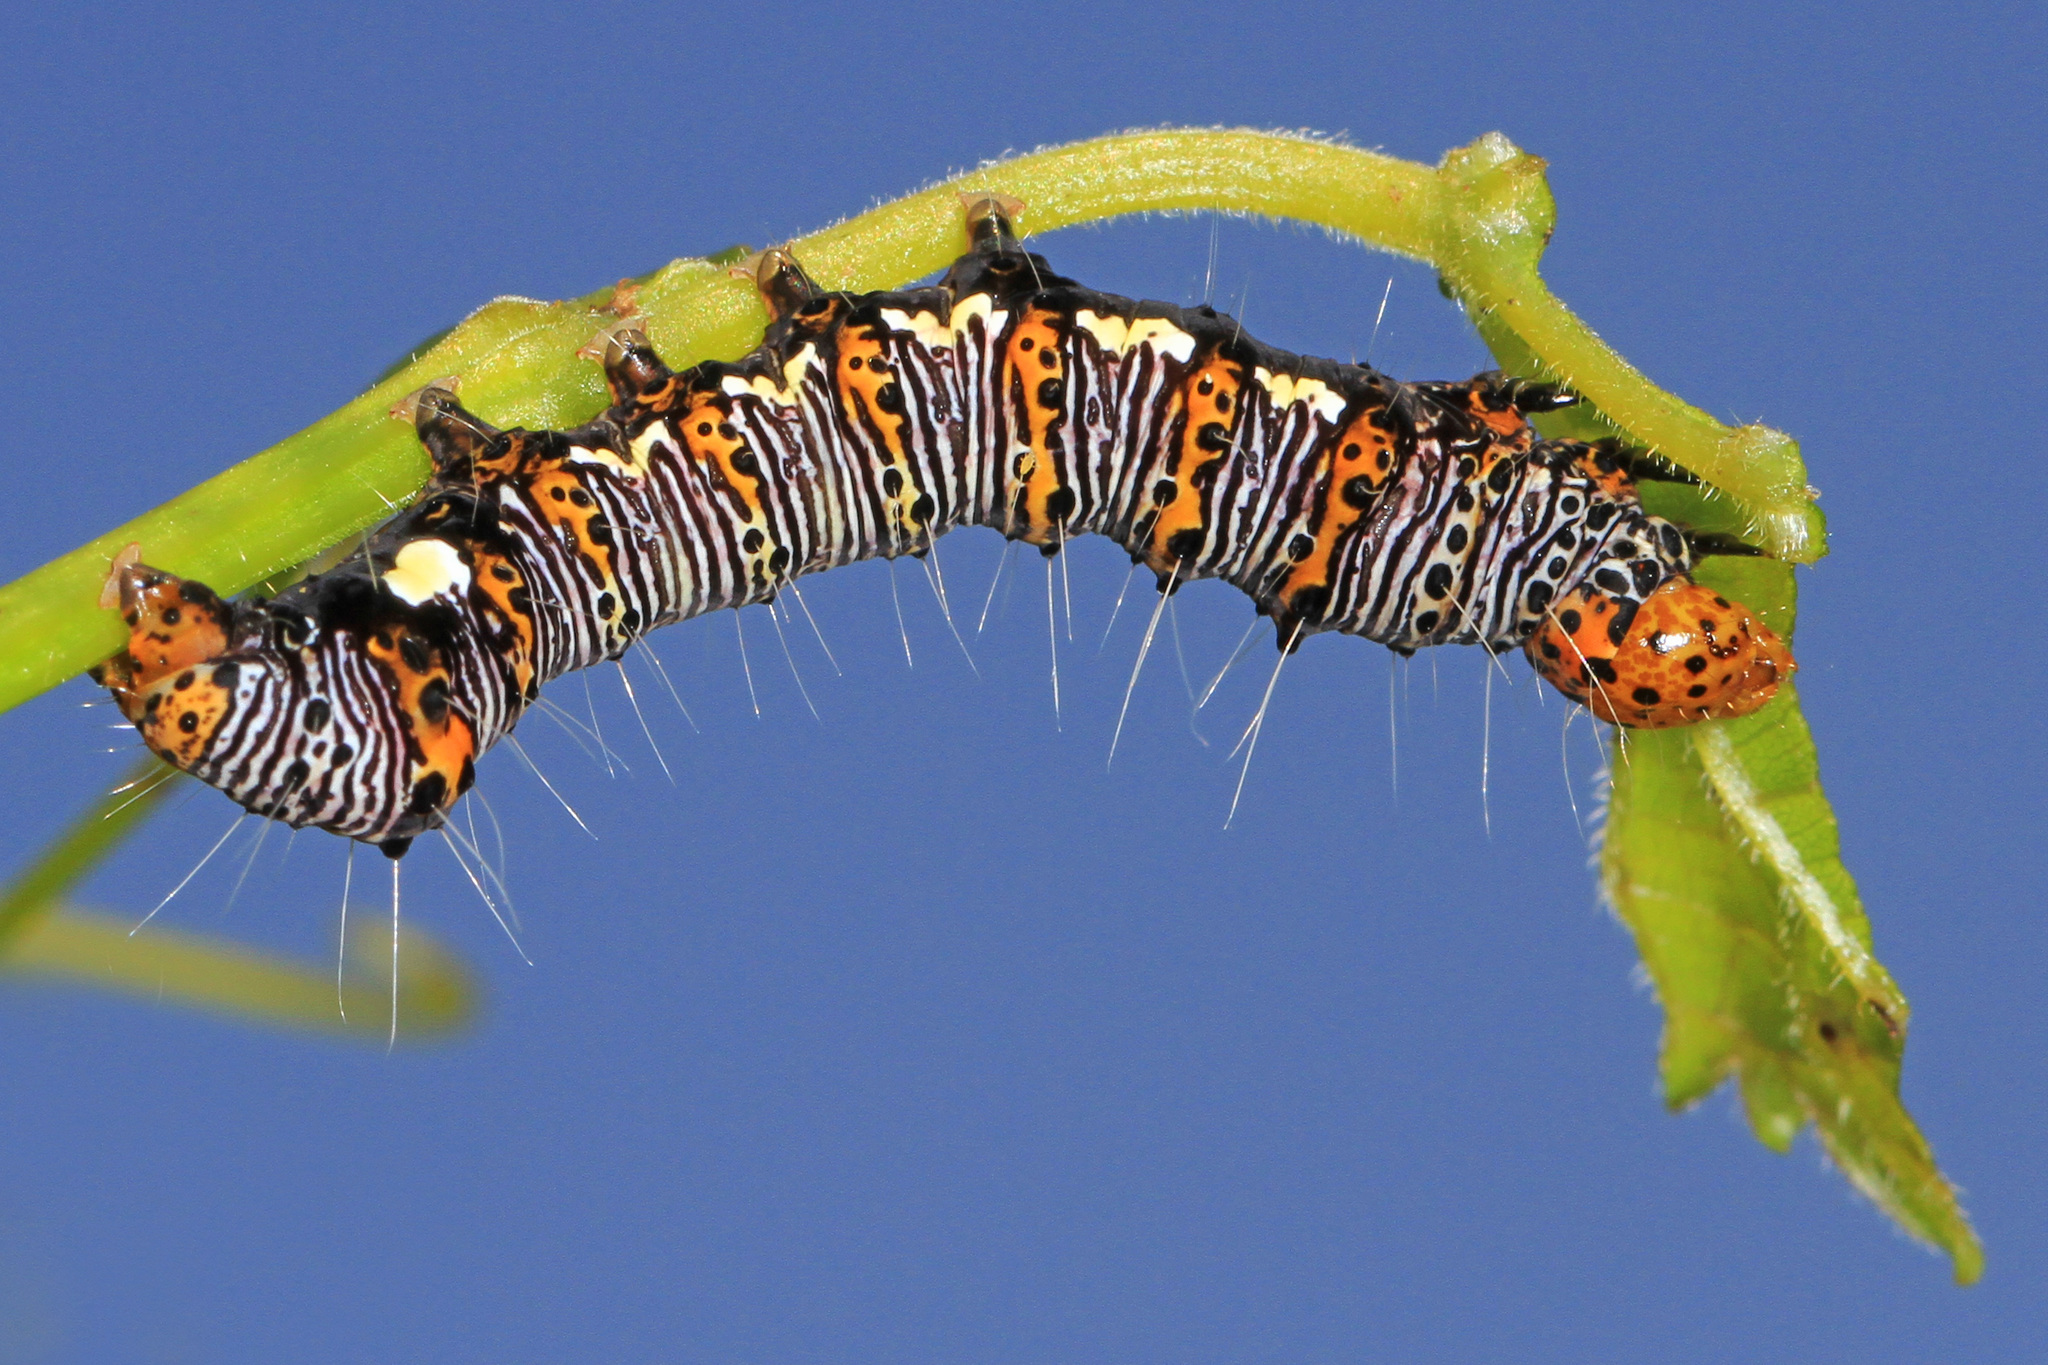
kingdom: Animalia
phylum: Arthropoda
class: Insecta
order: Lepidoptera
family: Noctuidae
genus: Alypia
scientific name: Alypia octomaculata
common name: Eight-spotted forester
